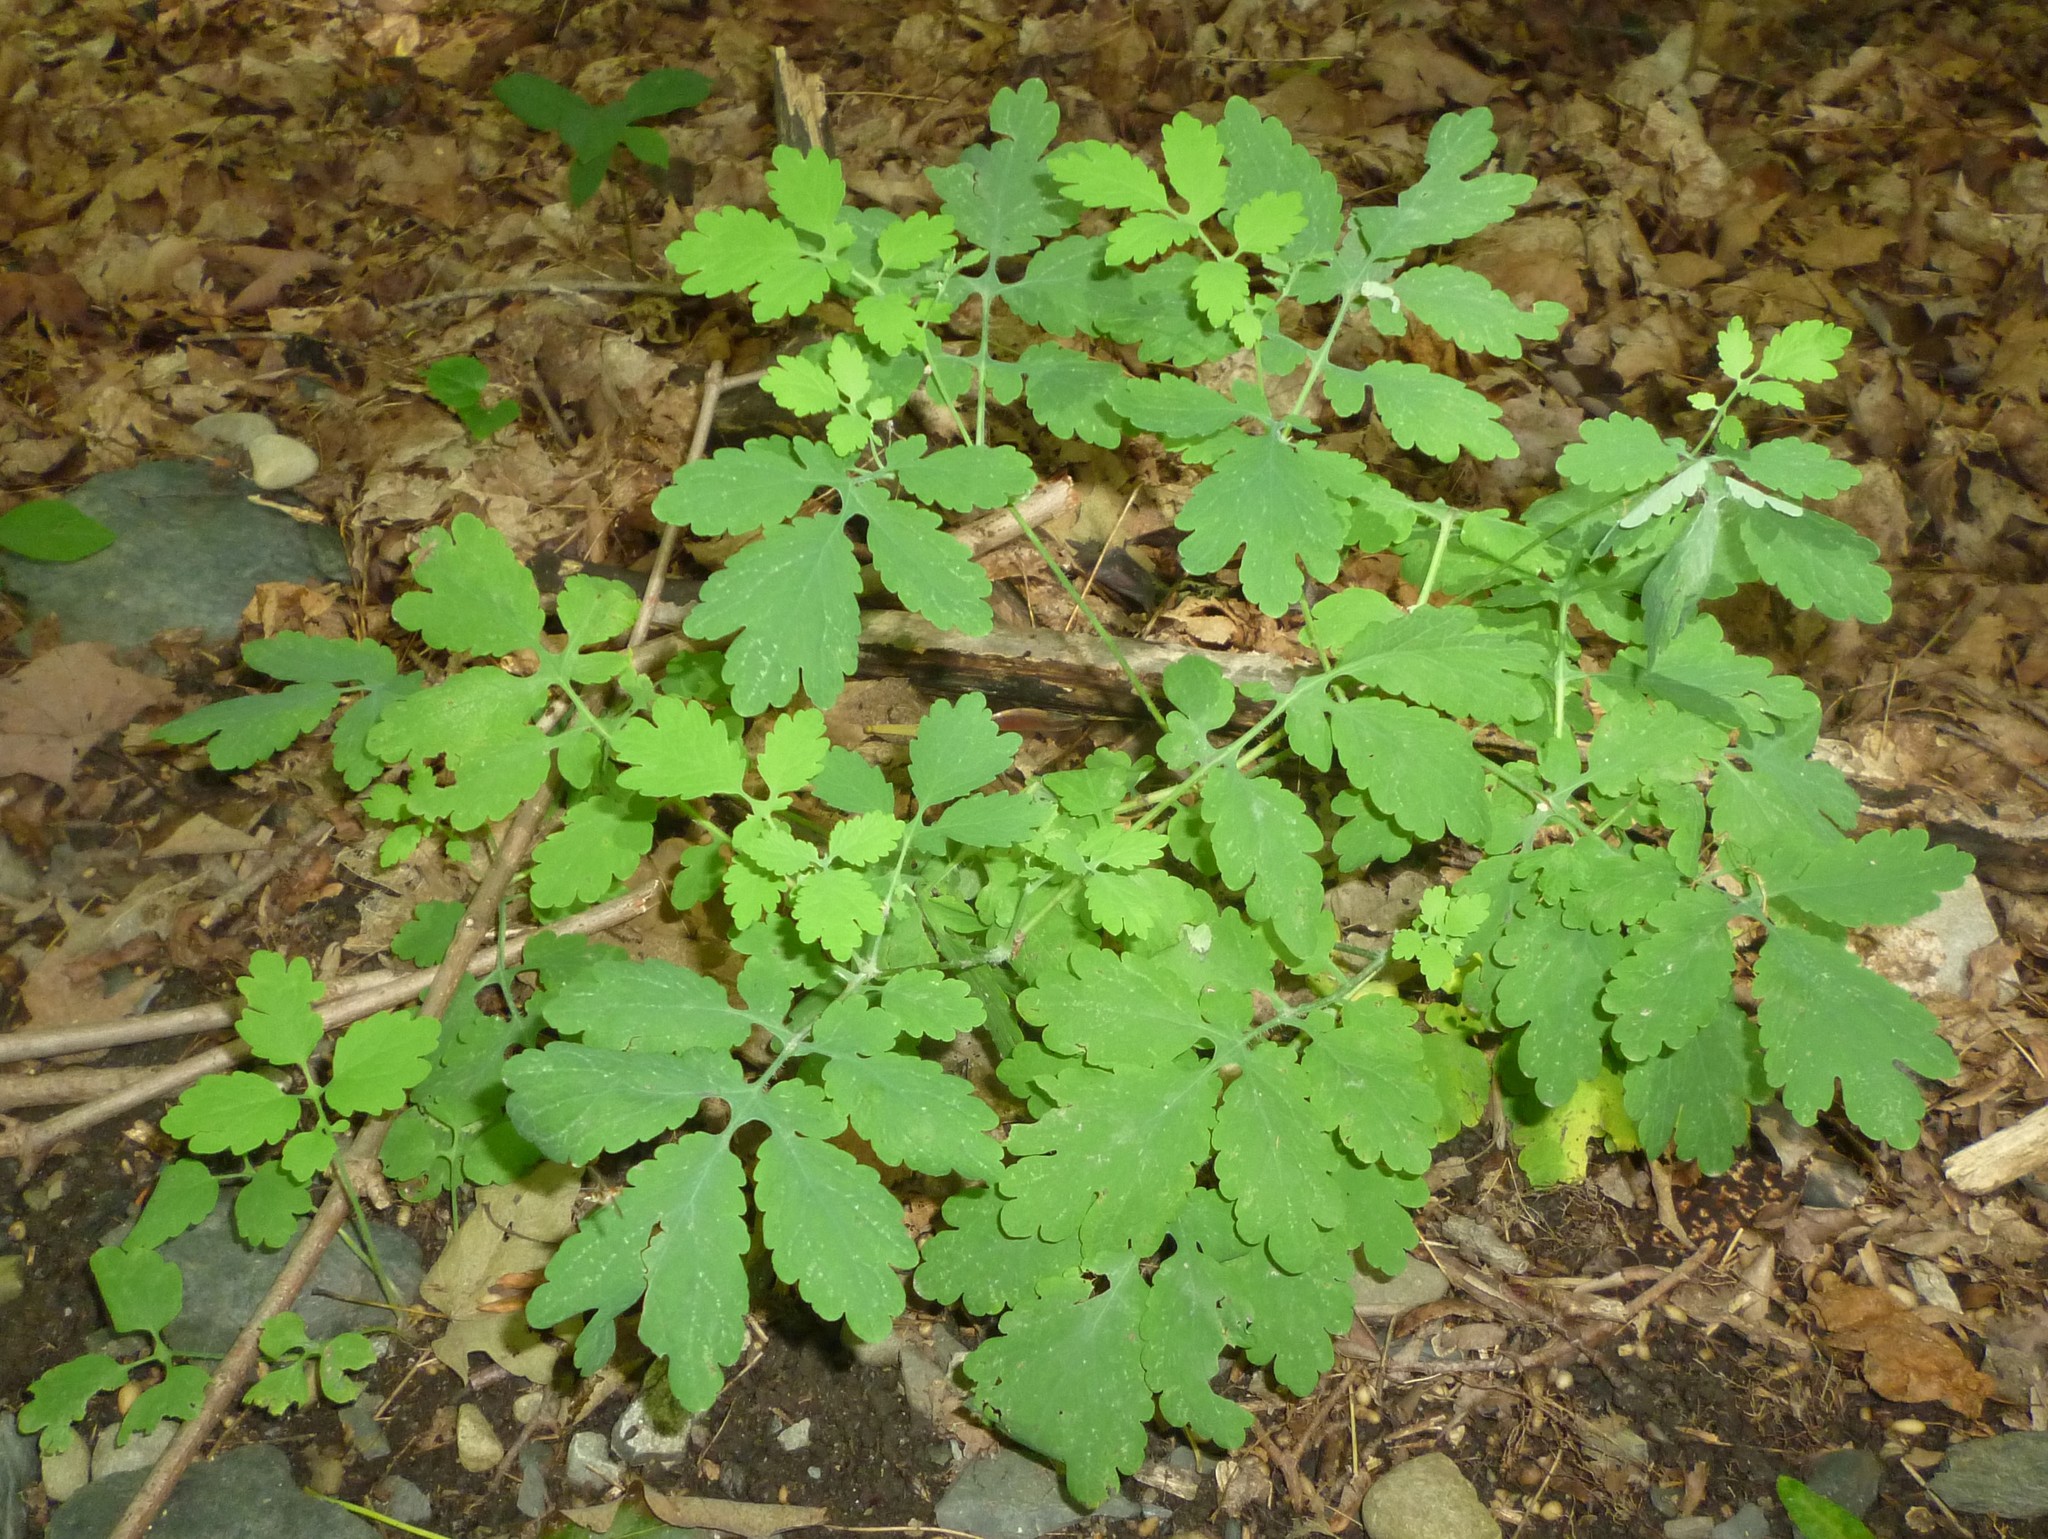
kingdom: Plantae
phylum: Tracheophyta
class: Magnoliopsida
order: Ranunculales
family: Papaveraceae
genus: Chelidonium
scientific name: Chelidonium majus
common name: Greater celandine
